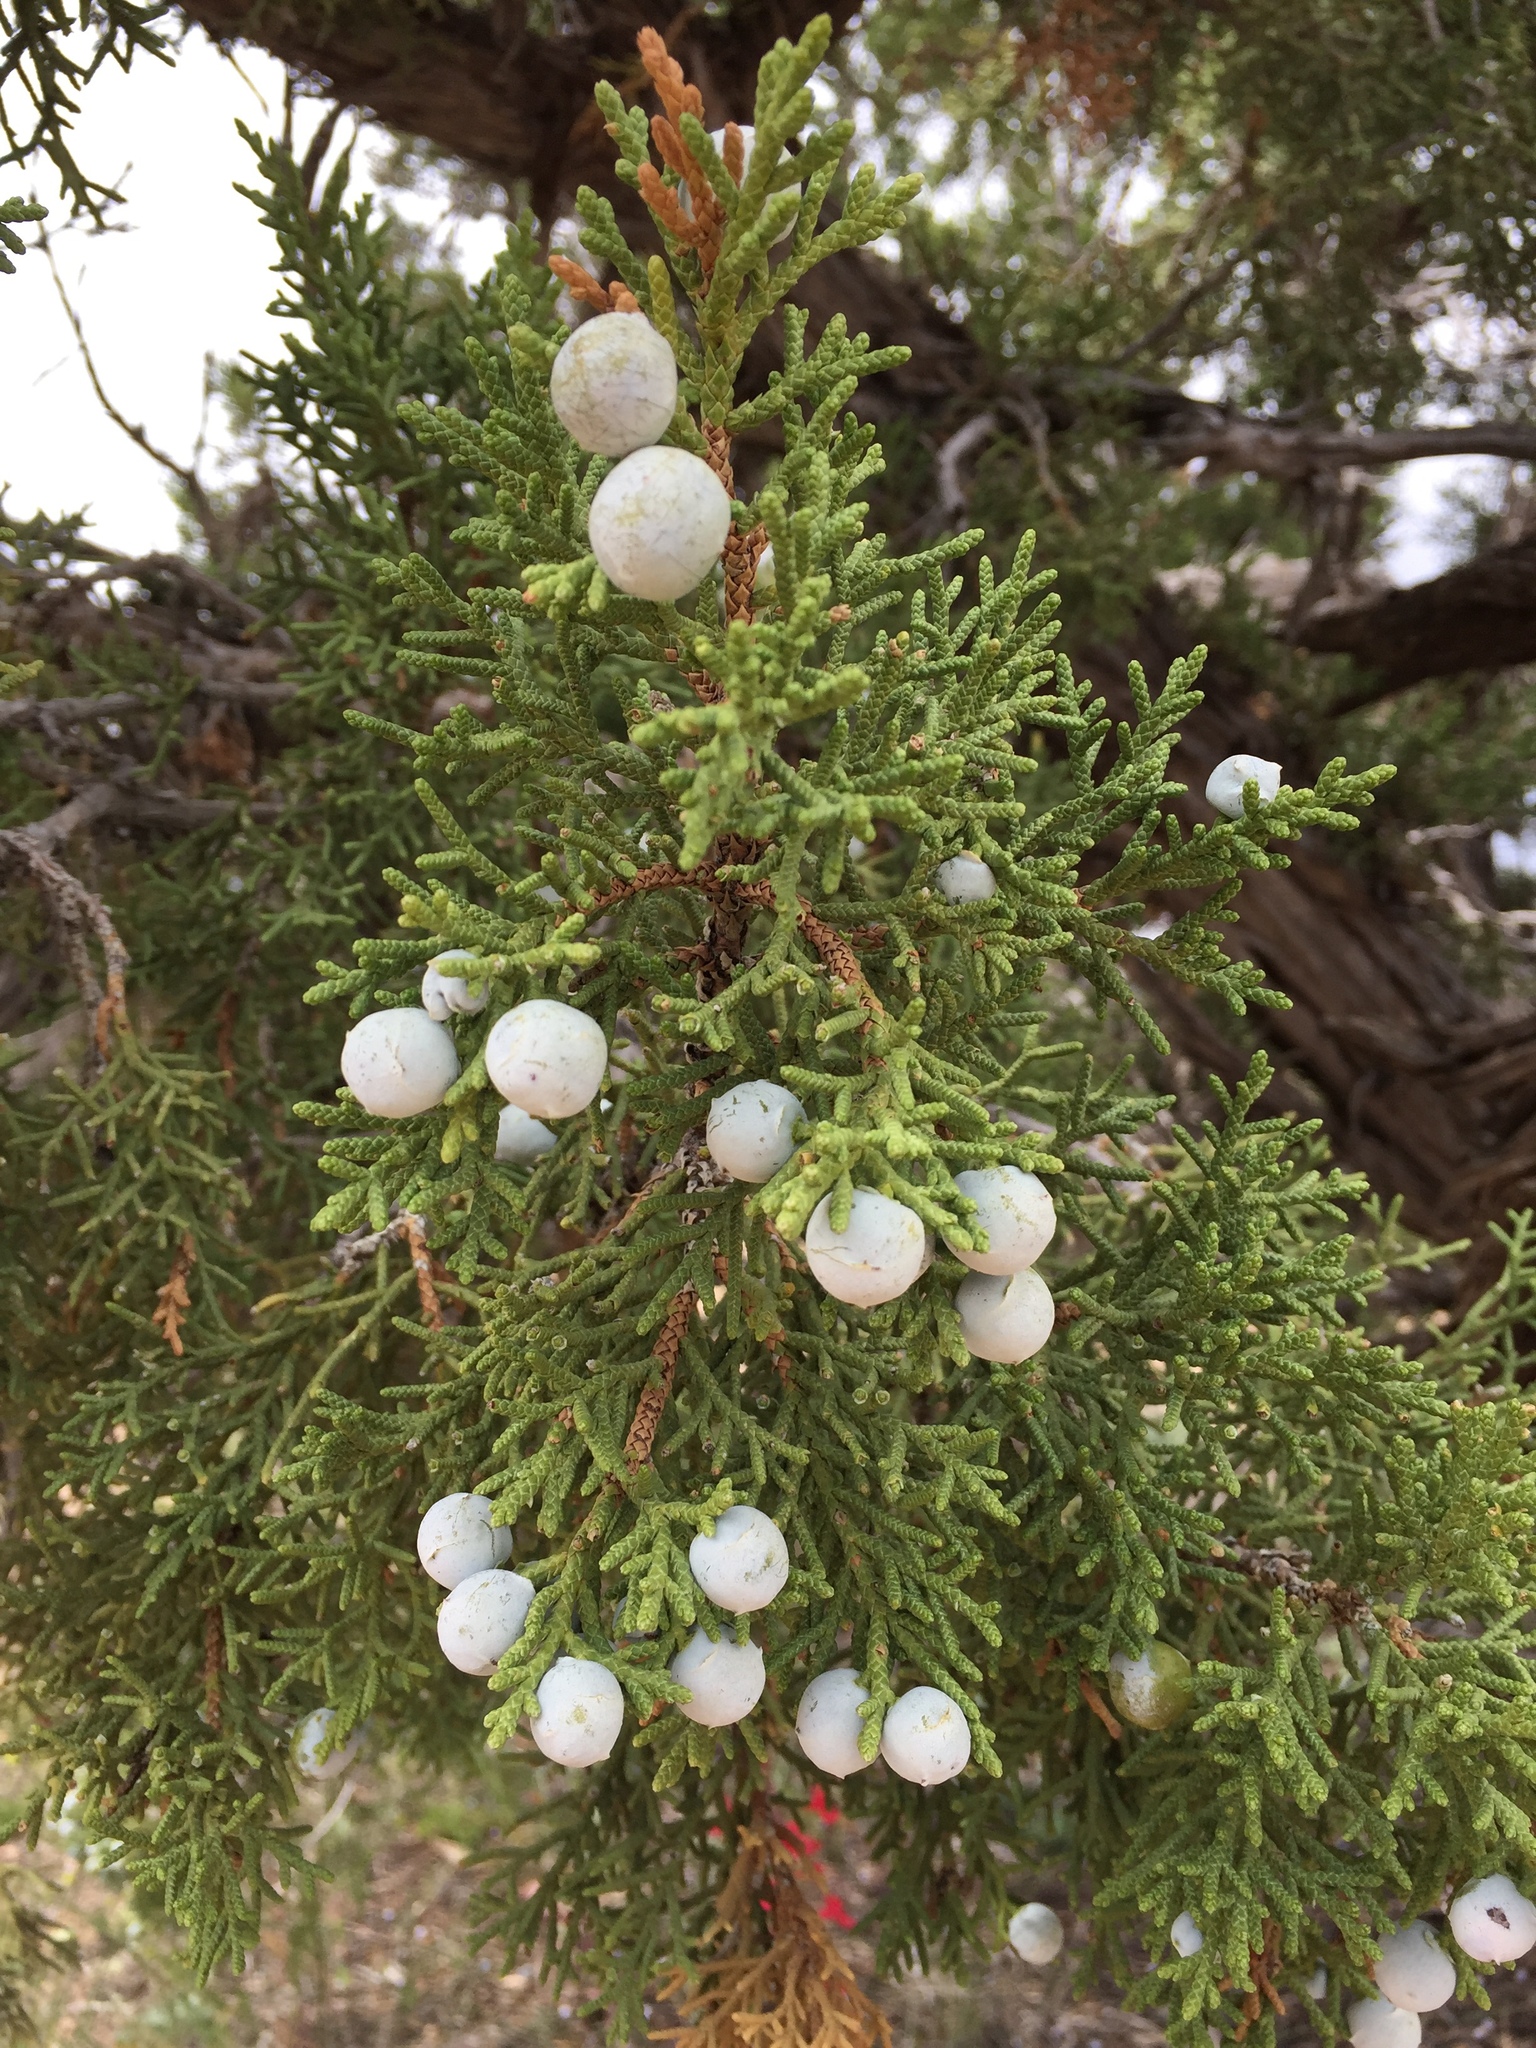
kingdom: Plantae
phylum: Tracheophyta
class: Pinopsida
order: Pinales
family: Cupressaceae
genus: Juniperus
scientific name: Juniperus osteosperma
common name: Utah juniper
